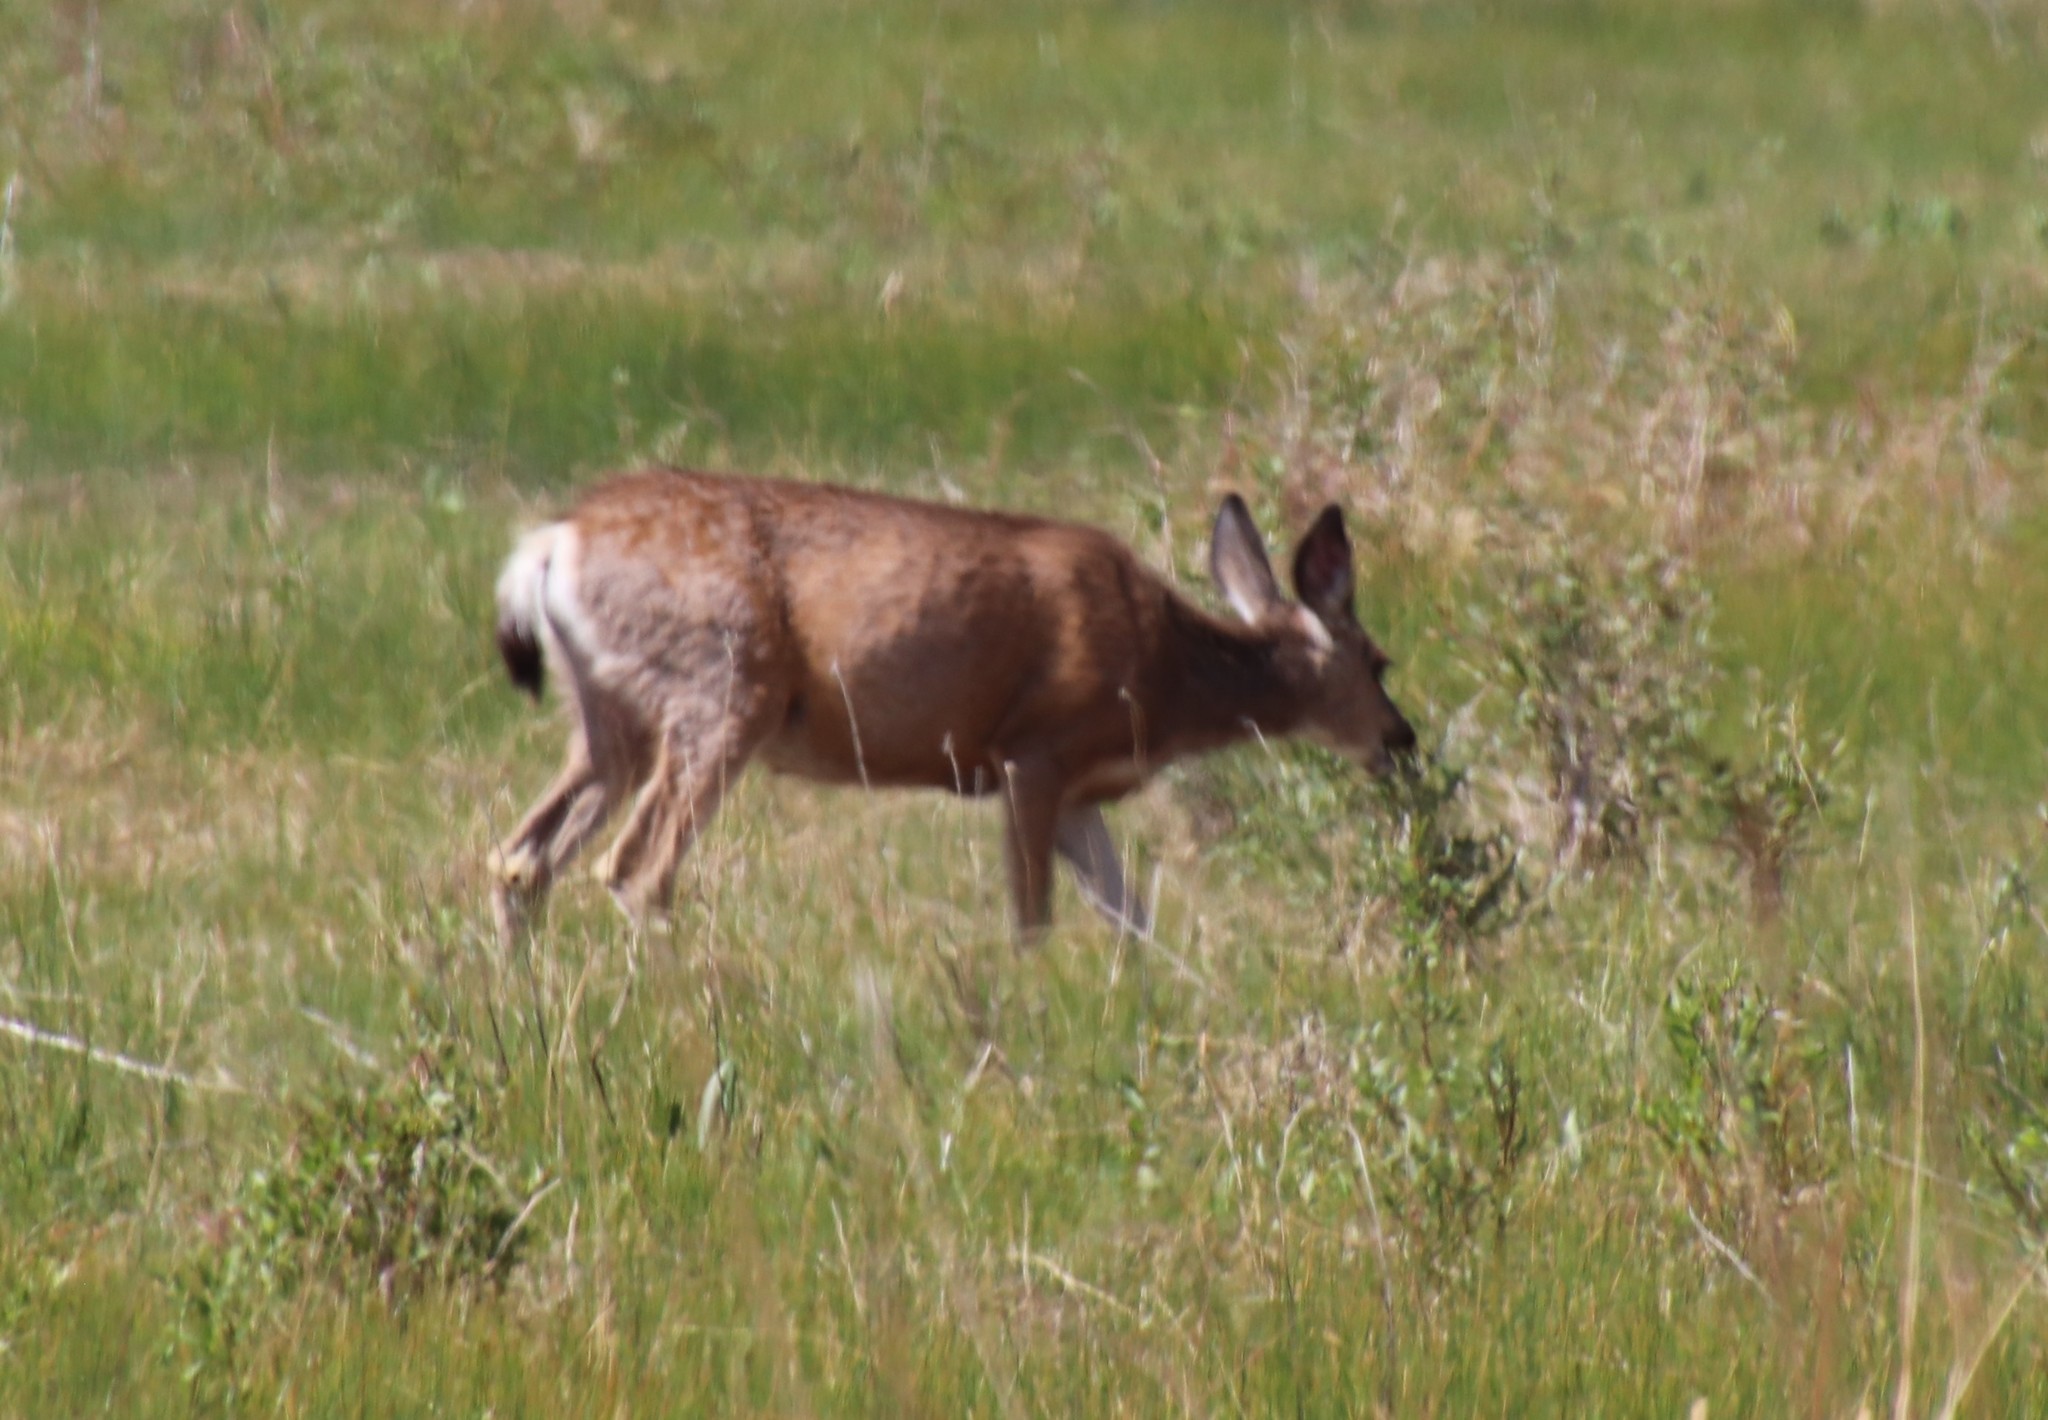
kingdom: Animalia
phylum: Chordata
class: Mammalia
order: Artiodactyla
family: Cervidae
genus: Odocoileus
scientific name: Odocoileus hemionus
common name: Mule deer
